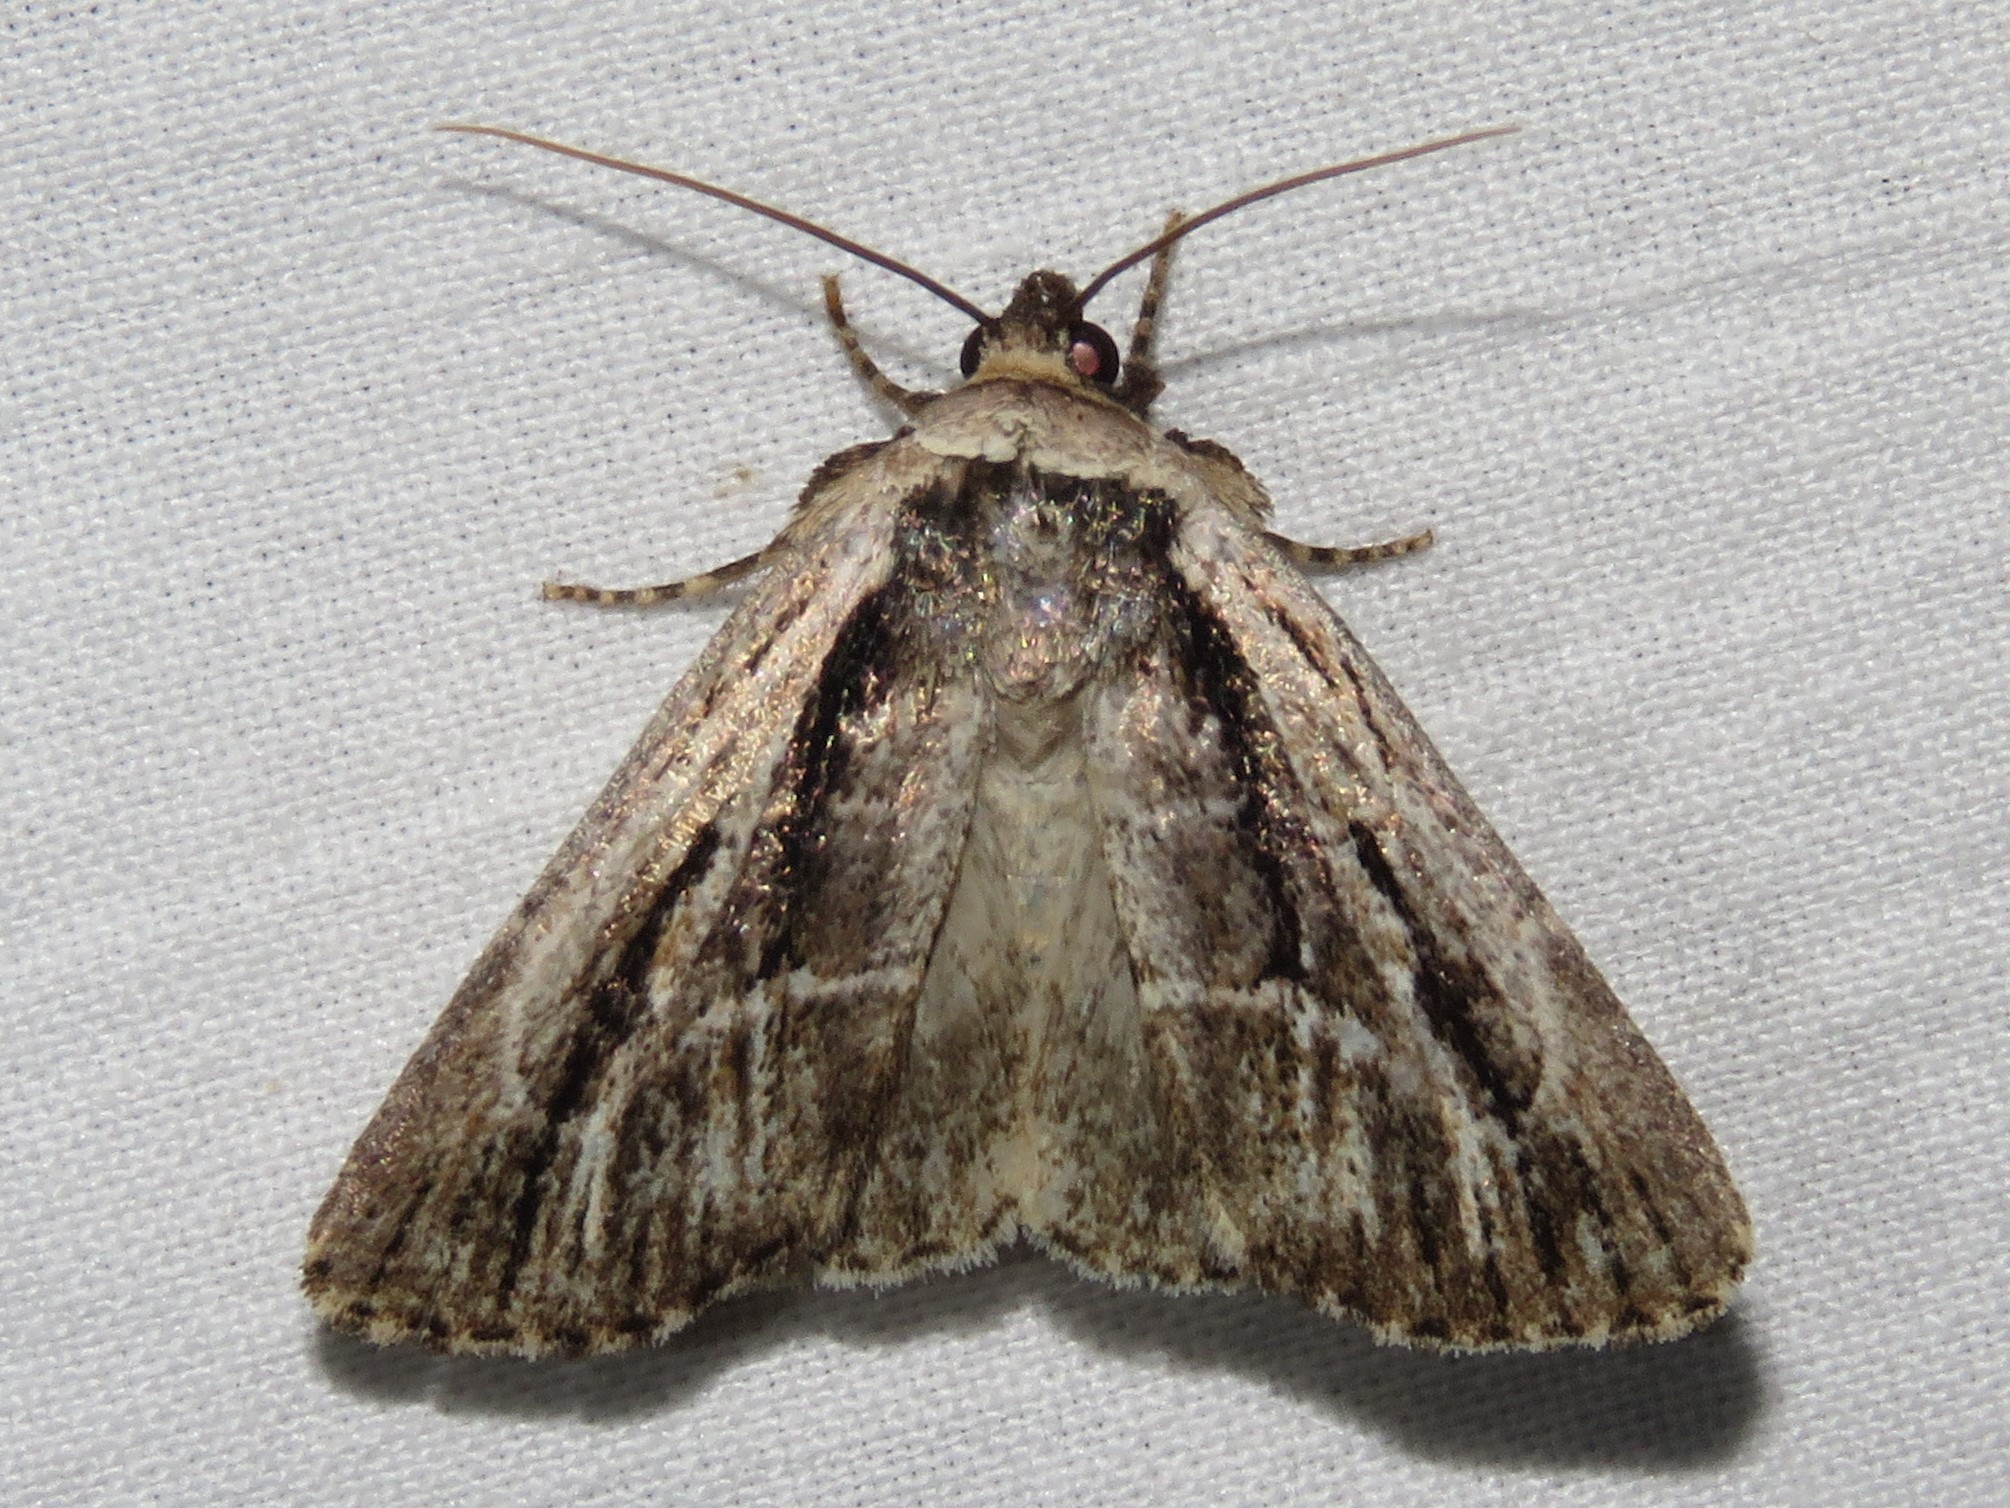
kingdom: Animalia
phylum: Arthropoda
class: Insecta
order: Lepidoptera
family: Noctuidae
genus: Sympistis
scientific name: Sympistis badistriga
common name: Brown-lined sallow moth
